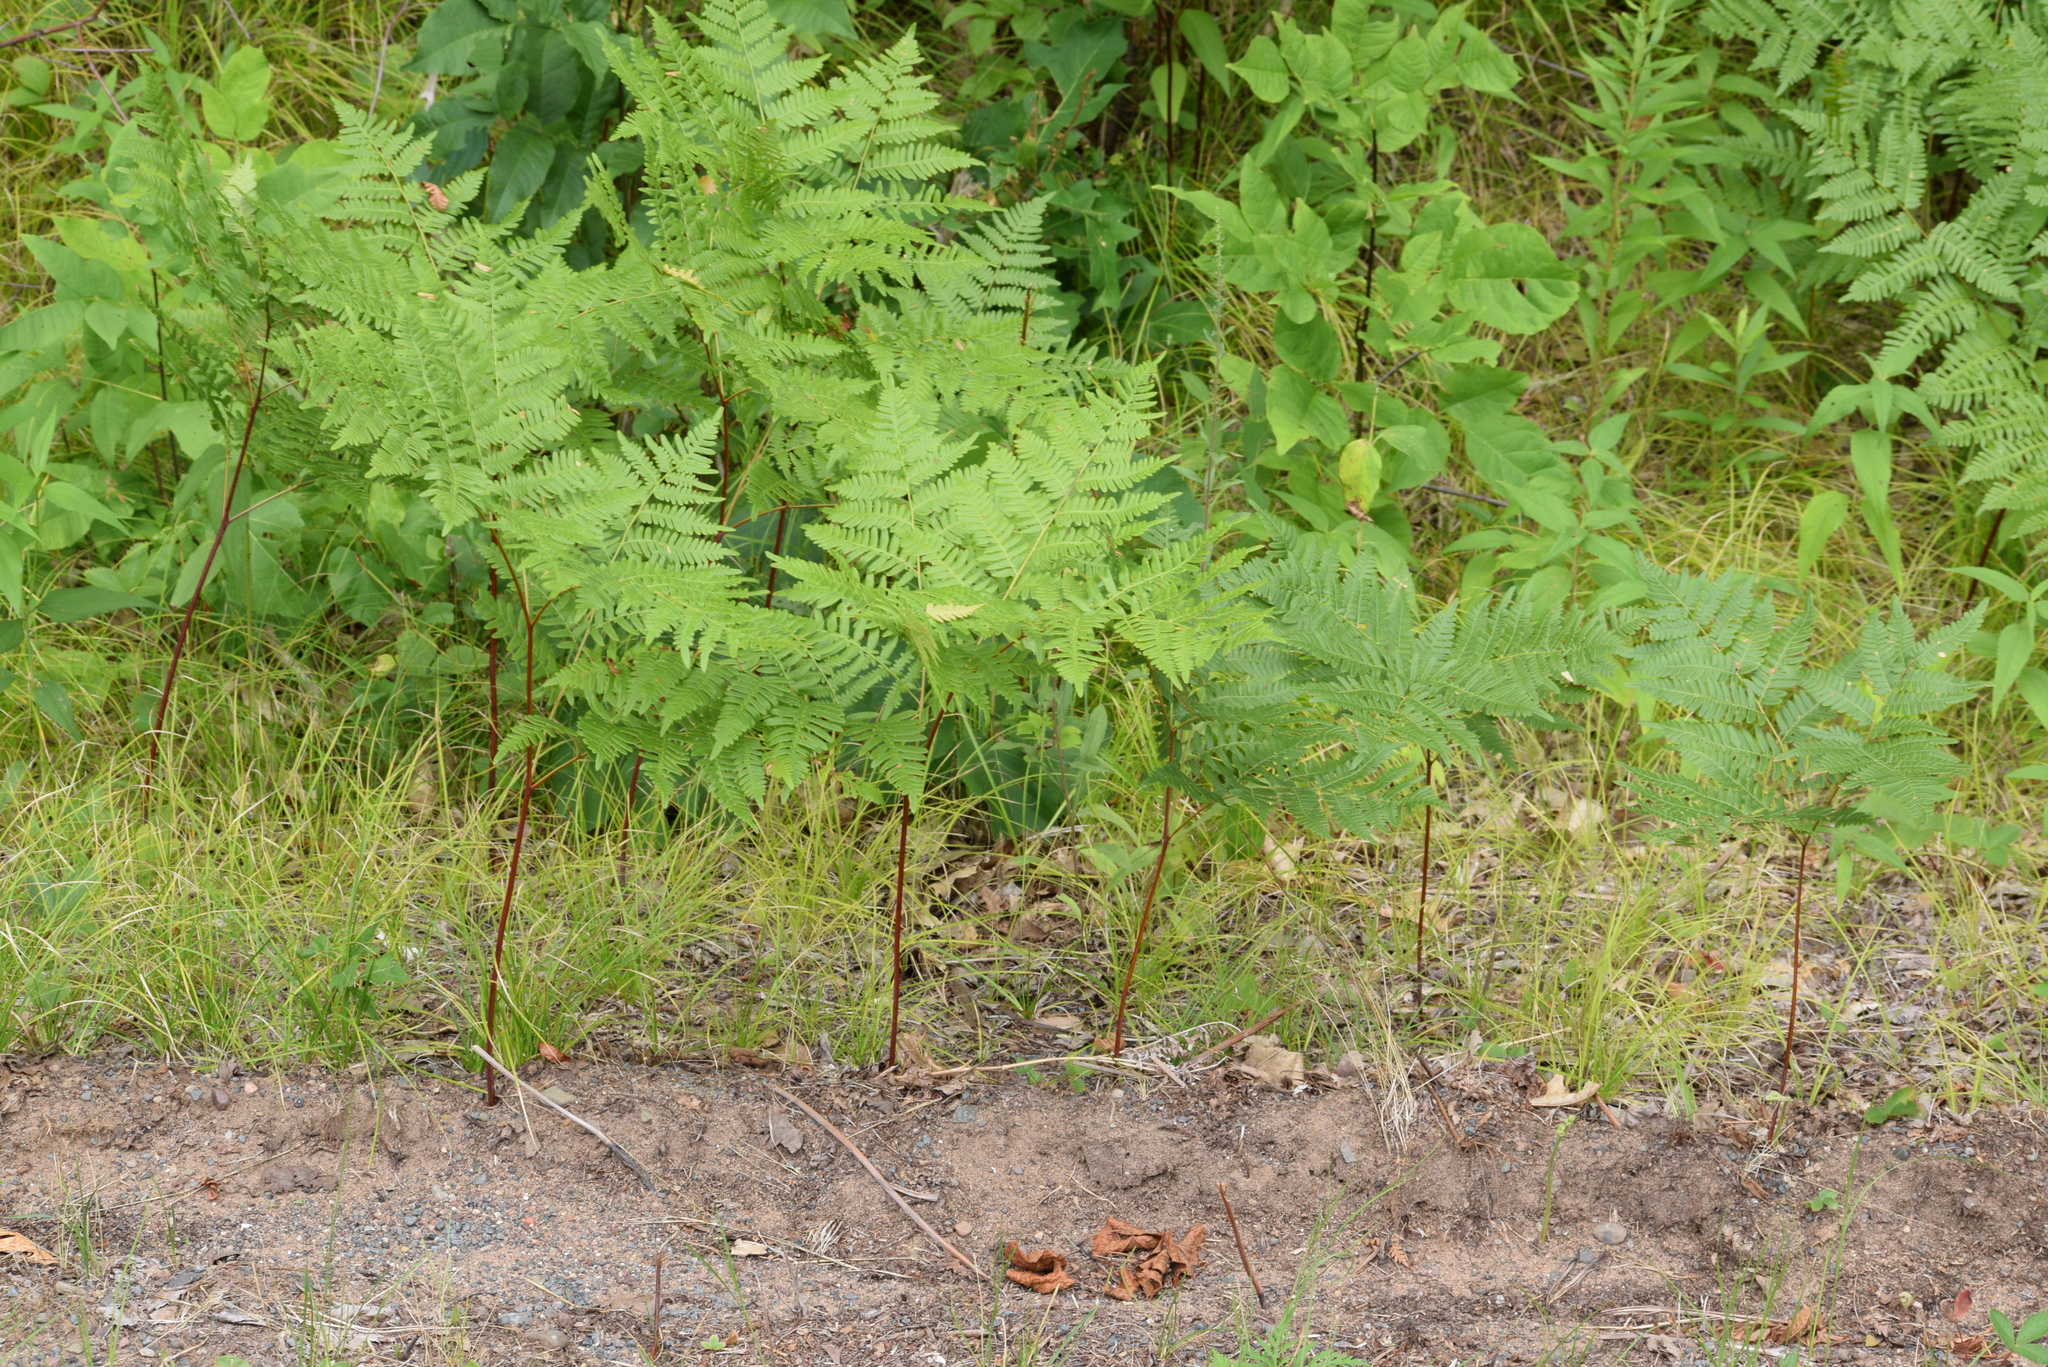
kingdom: Plantae
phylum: Tracheophyta
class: Polypodiopsida
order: Polypodiales
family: Dennstaedtiaceae
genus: Pteridium
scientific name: Pteridium aquilinum
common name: Bracken
